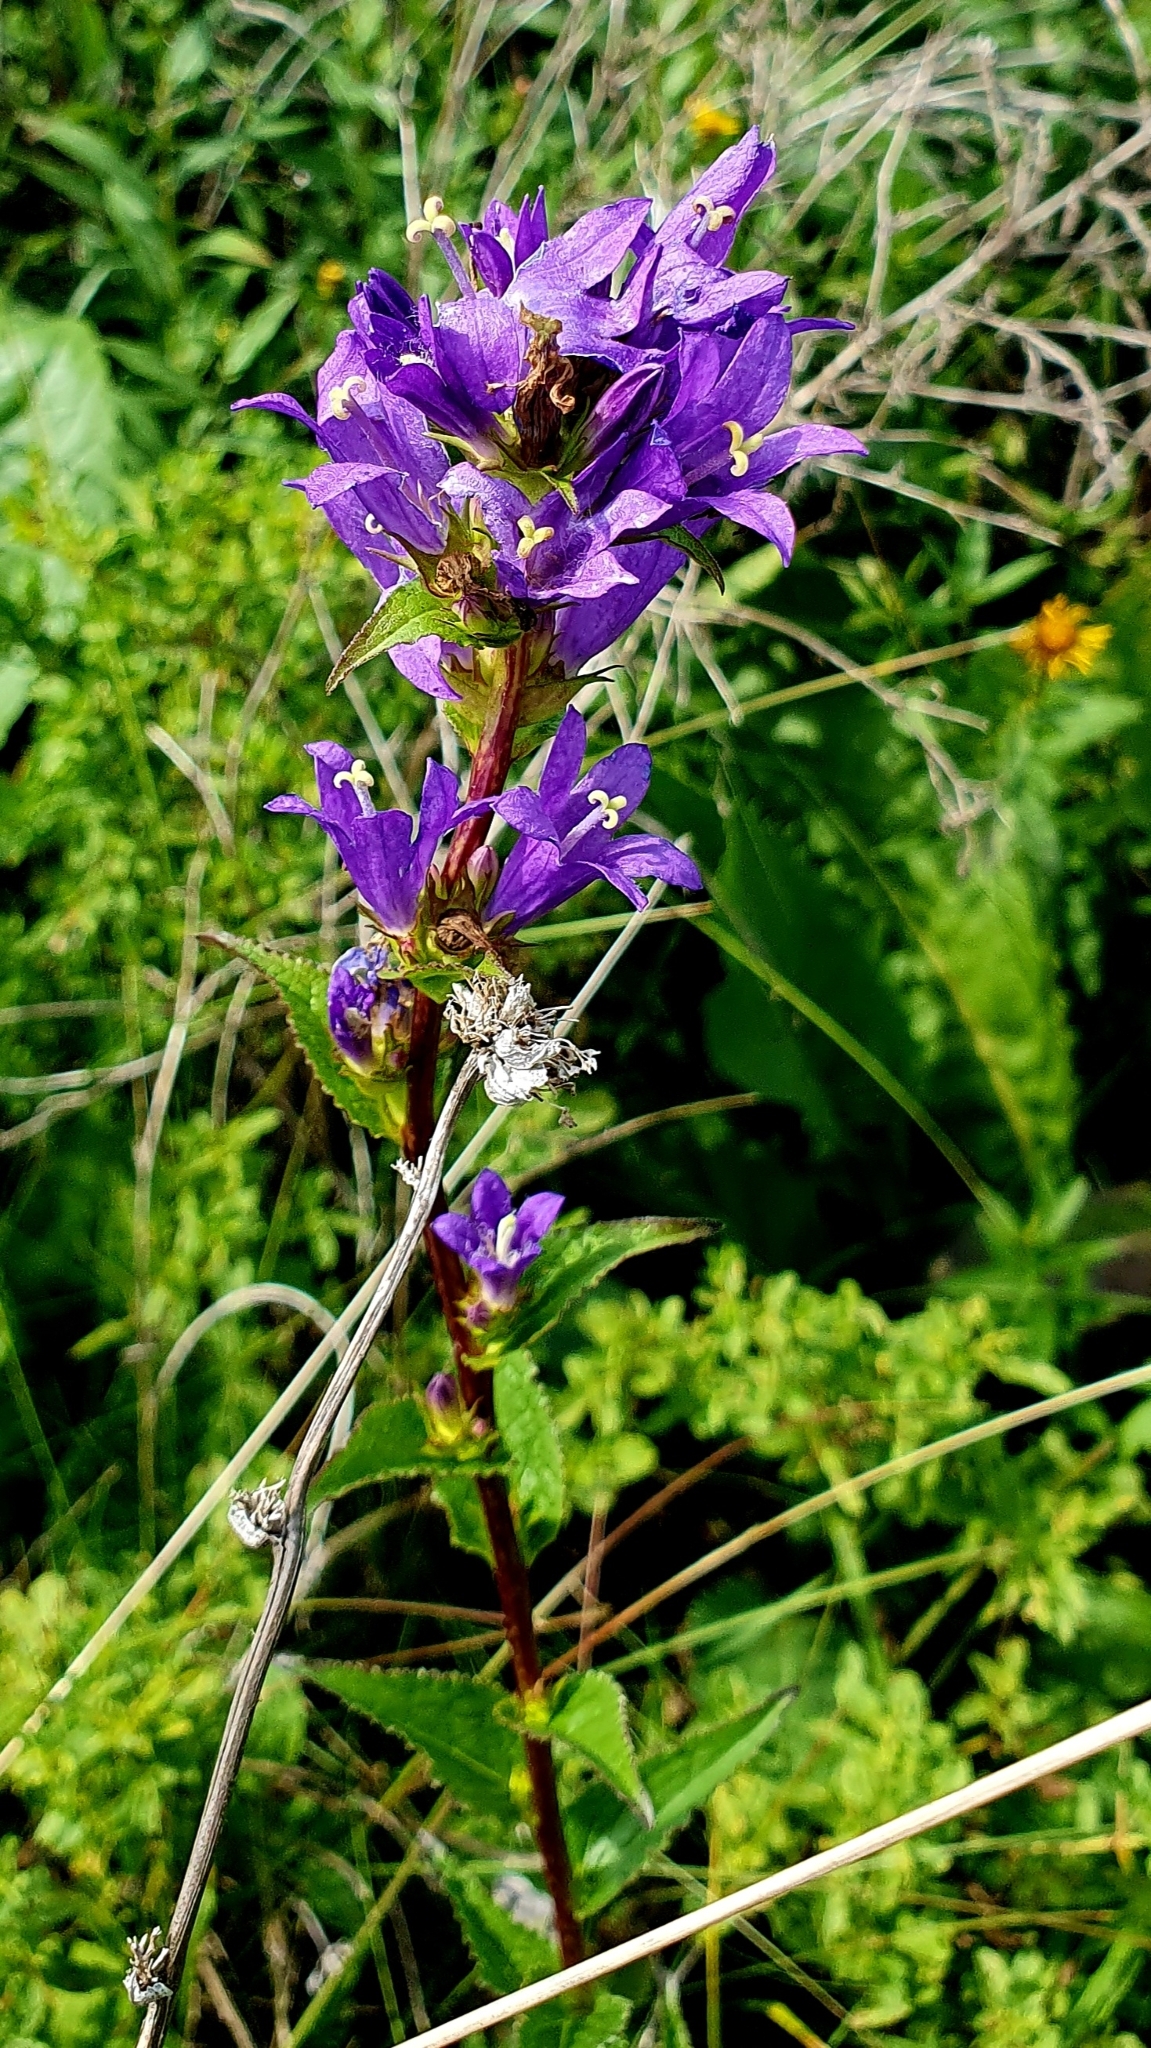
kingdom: Plantae
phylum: Tracheophyta
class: Magnoliopsida
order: Asterales
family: Campanulaceae
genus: Campanula
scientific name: Campanula glomerata
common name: Clustered bellflower
